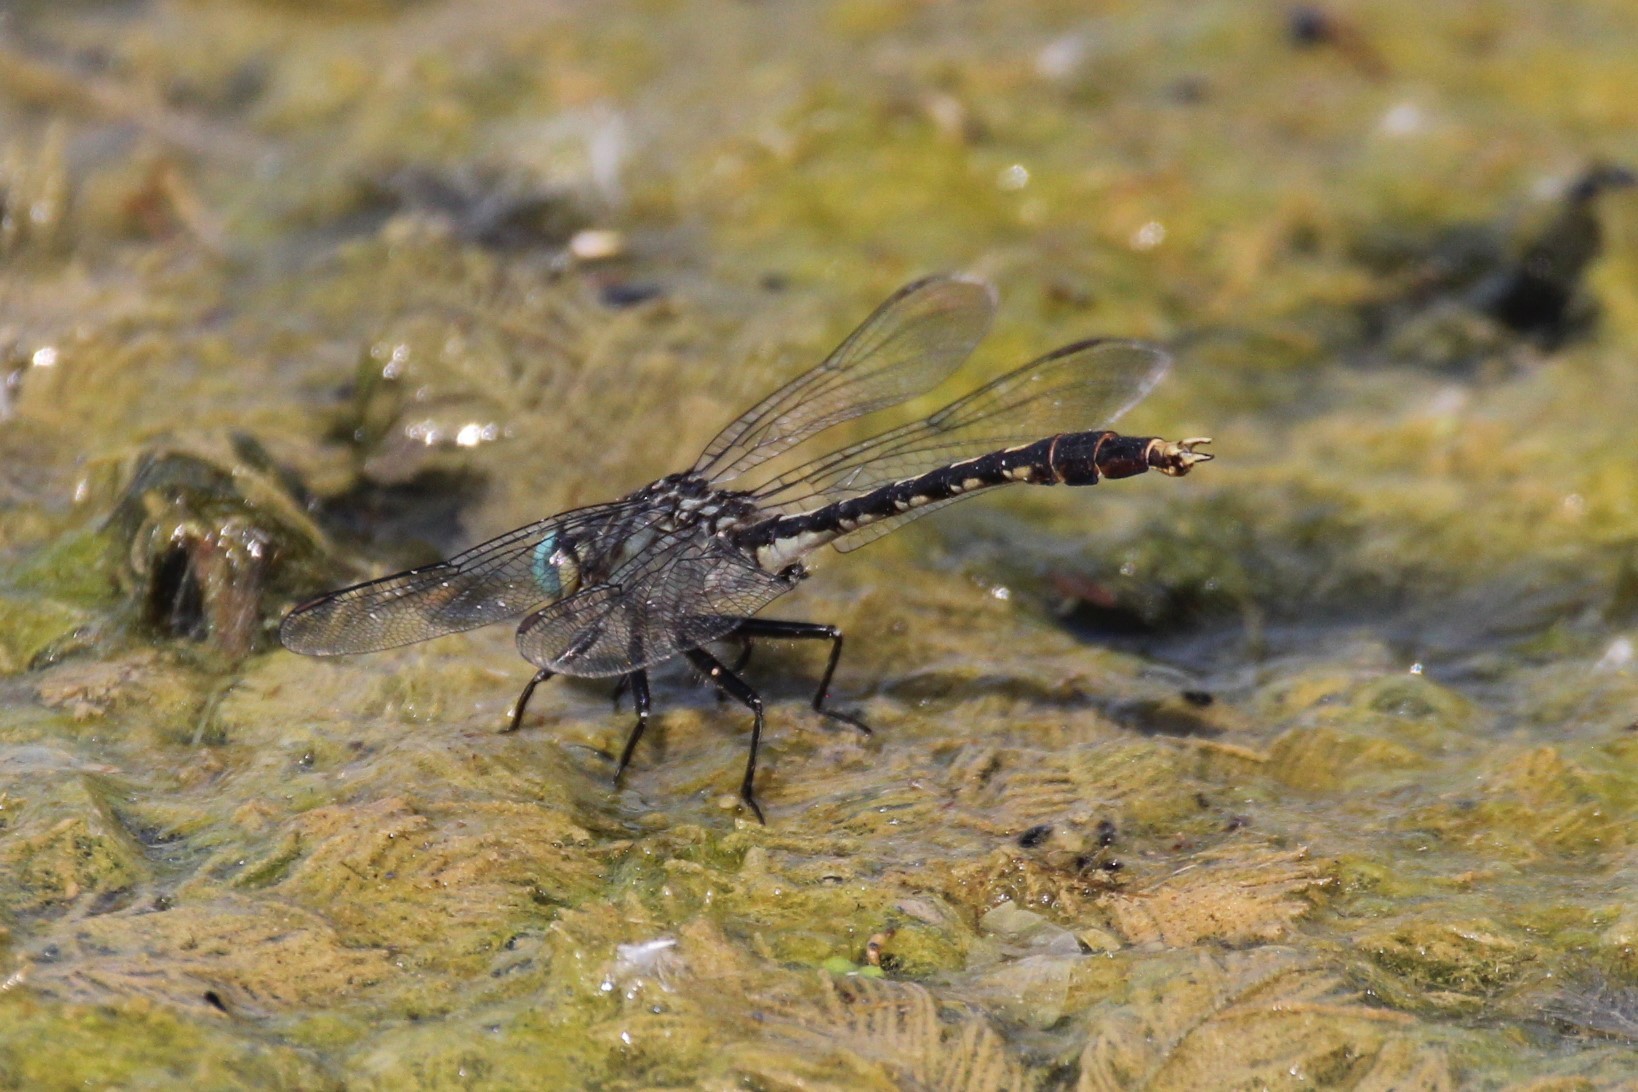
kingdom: Animalia
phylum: Arthropoda
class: Insecta
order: Odonata
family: Gomphidae
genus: Arigomphus
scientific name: Arigomphus villosipes
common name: Unicorn clubtail
